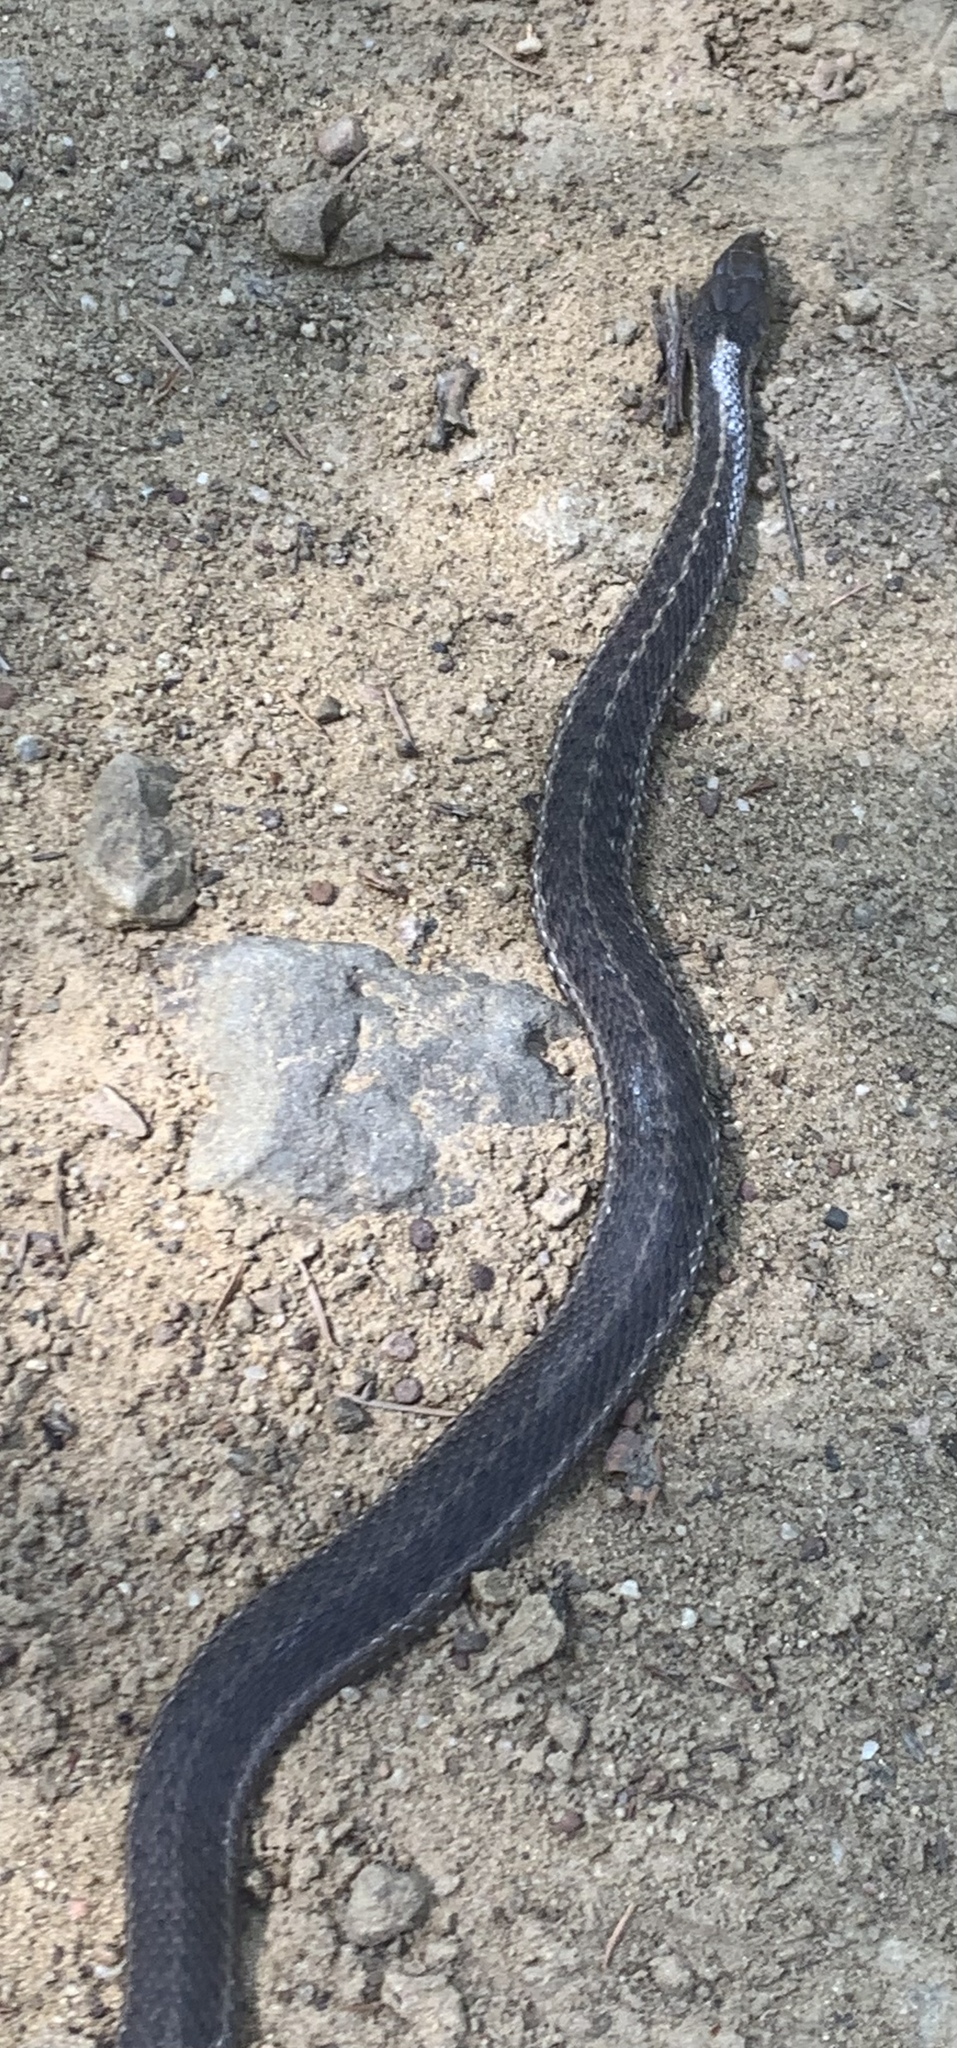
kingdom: Animalia
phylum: Chordata
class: Squamata
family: Colubridae
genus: Thamnophis
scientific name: Thamnophis elegans
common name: Western terrestrial garter snake
